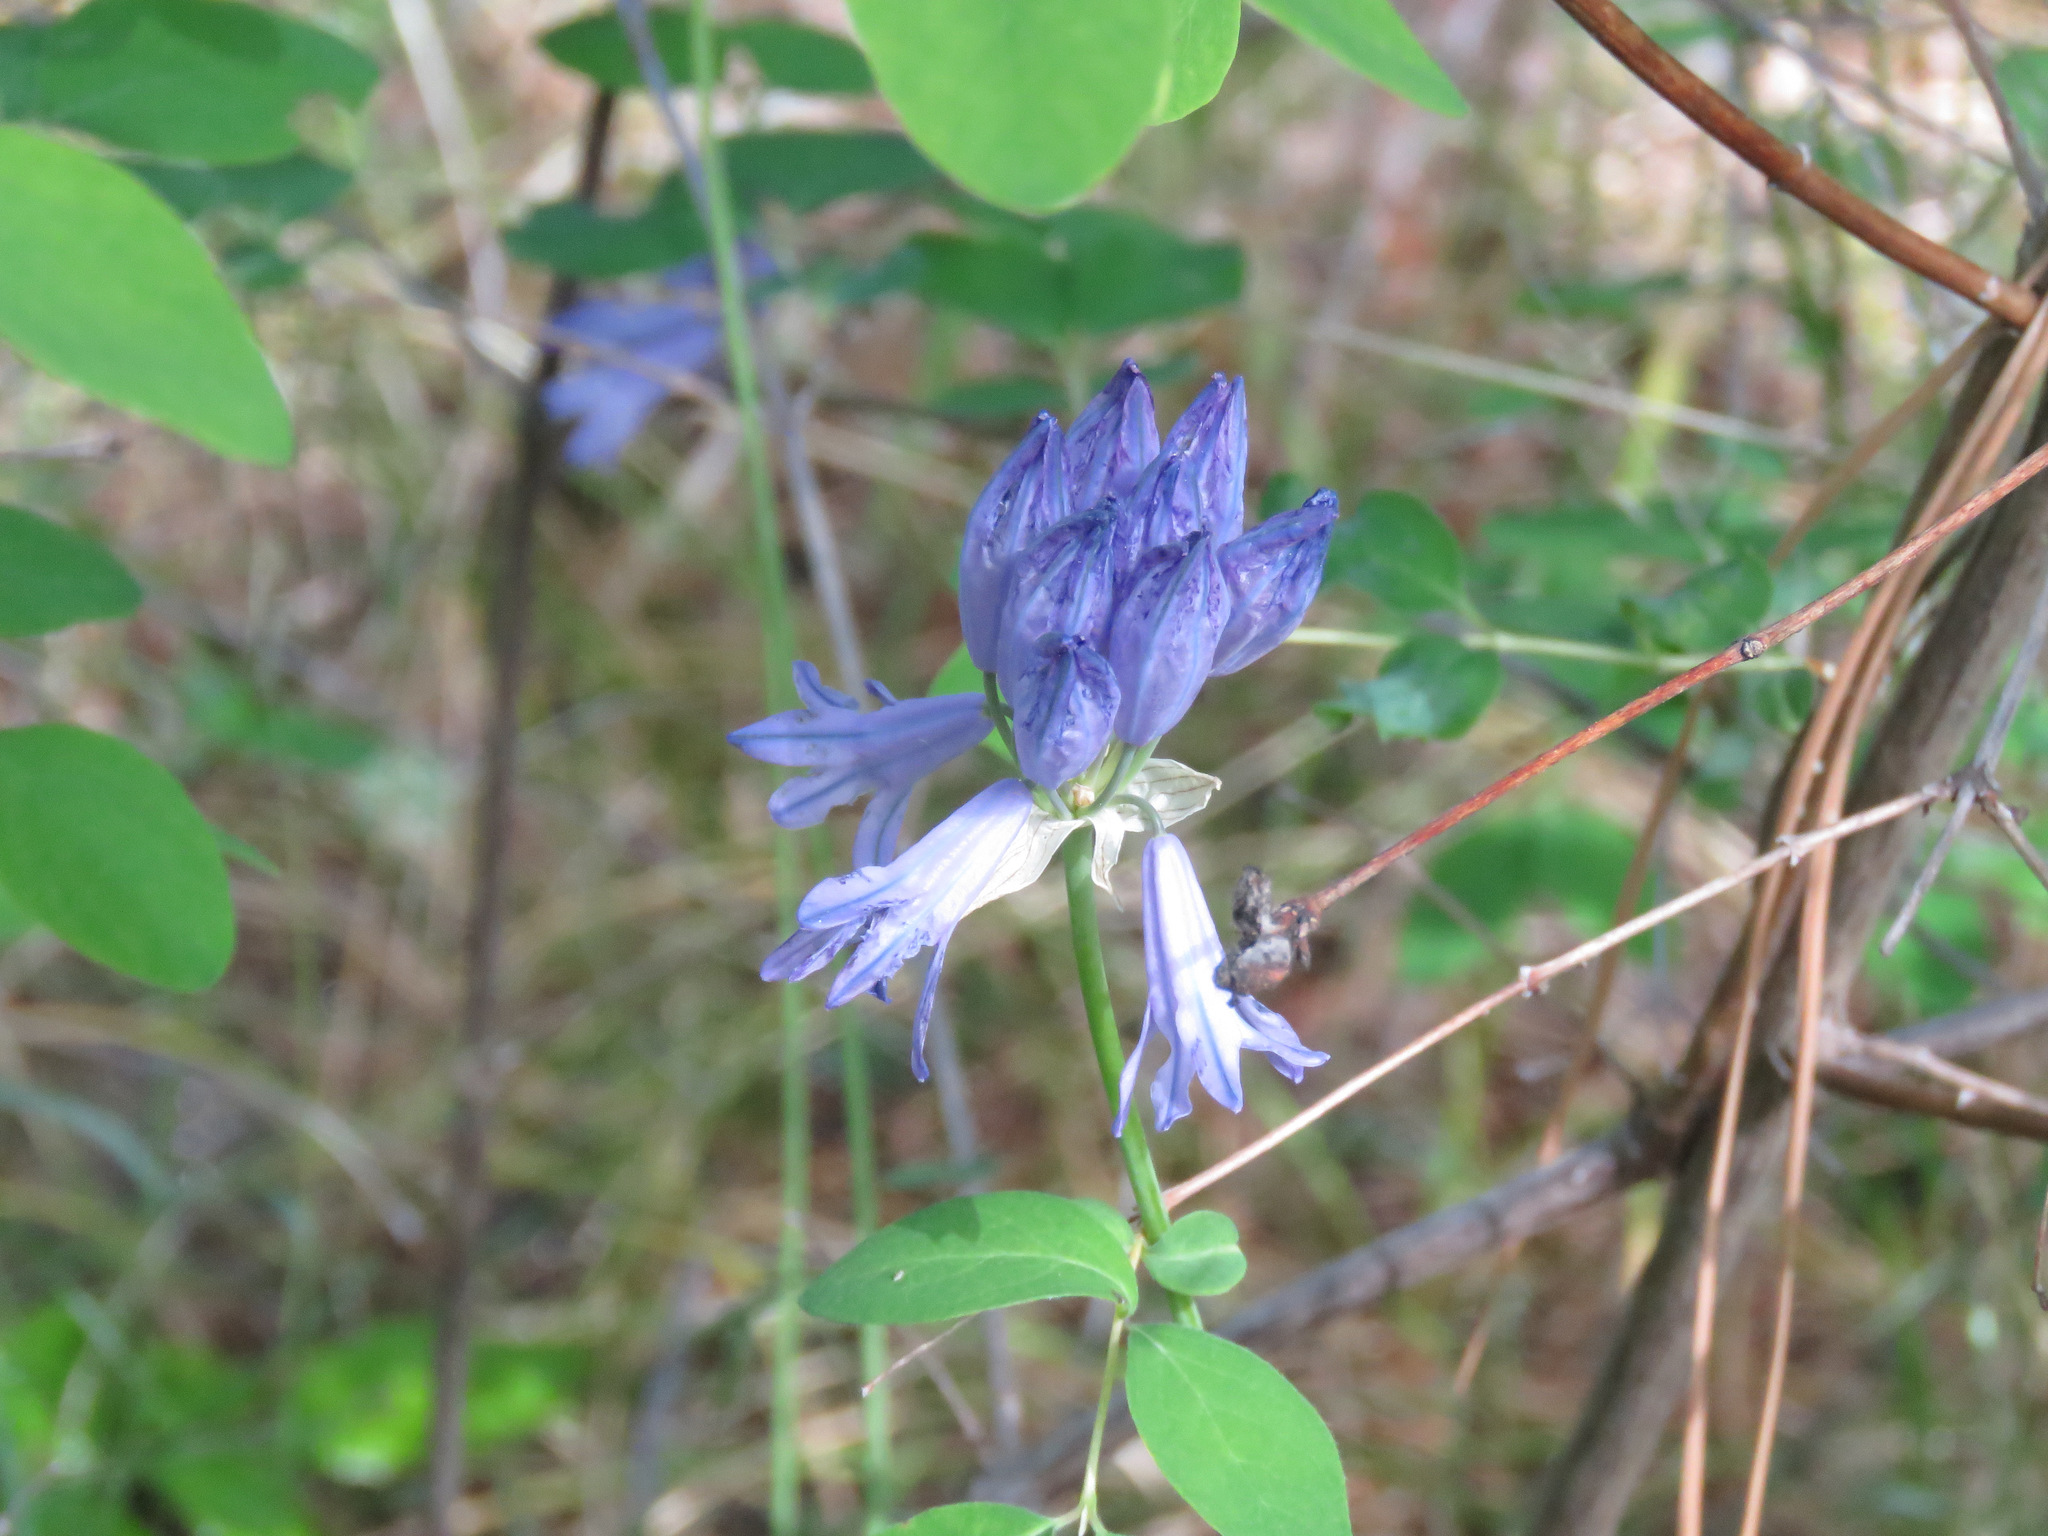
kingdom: Plantae
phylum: Tracheophyta
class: Liliopsida
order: Asparagales
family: Asparagaceae
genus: Triteleia
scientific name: Triteleia grandiflora
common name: Wild hyacinth
